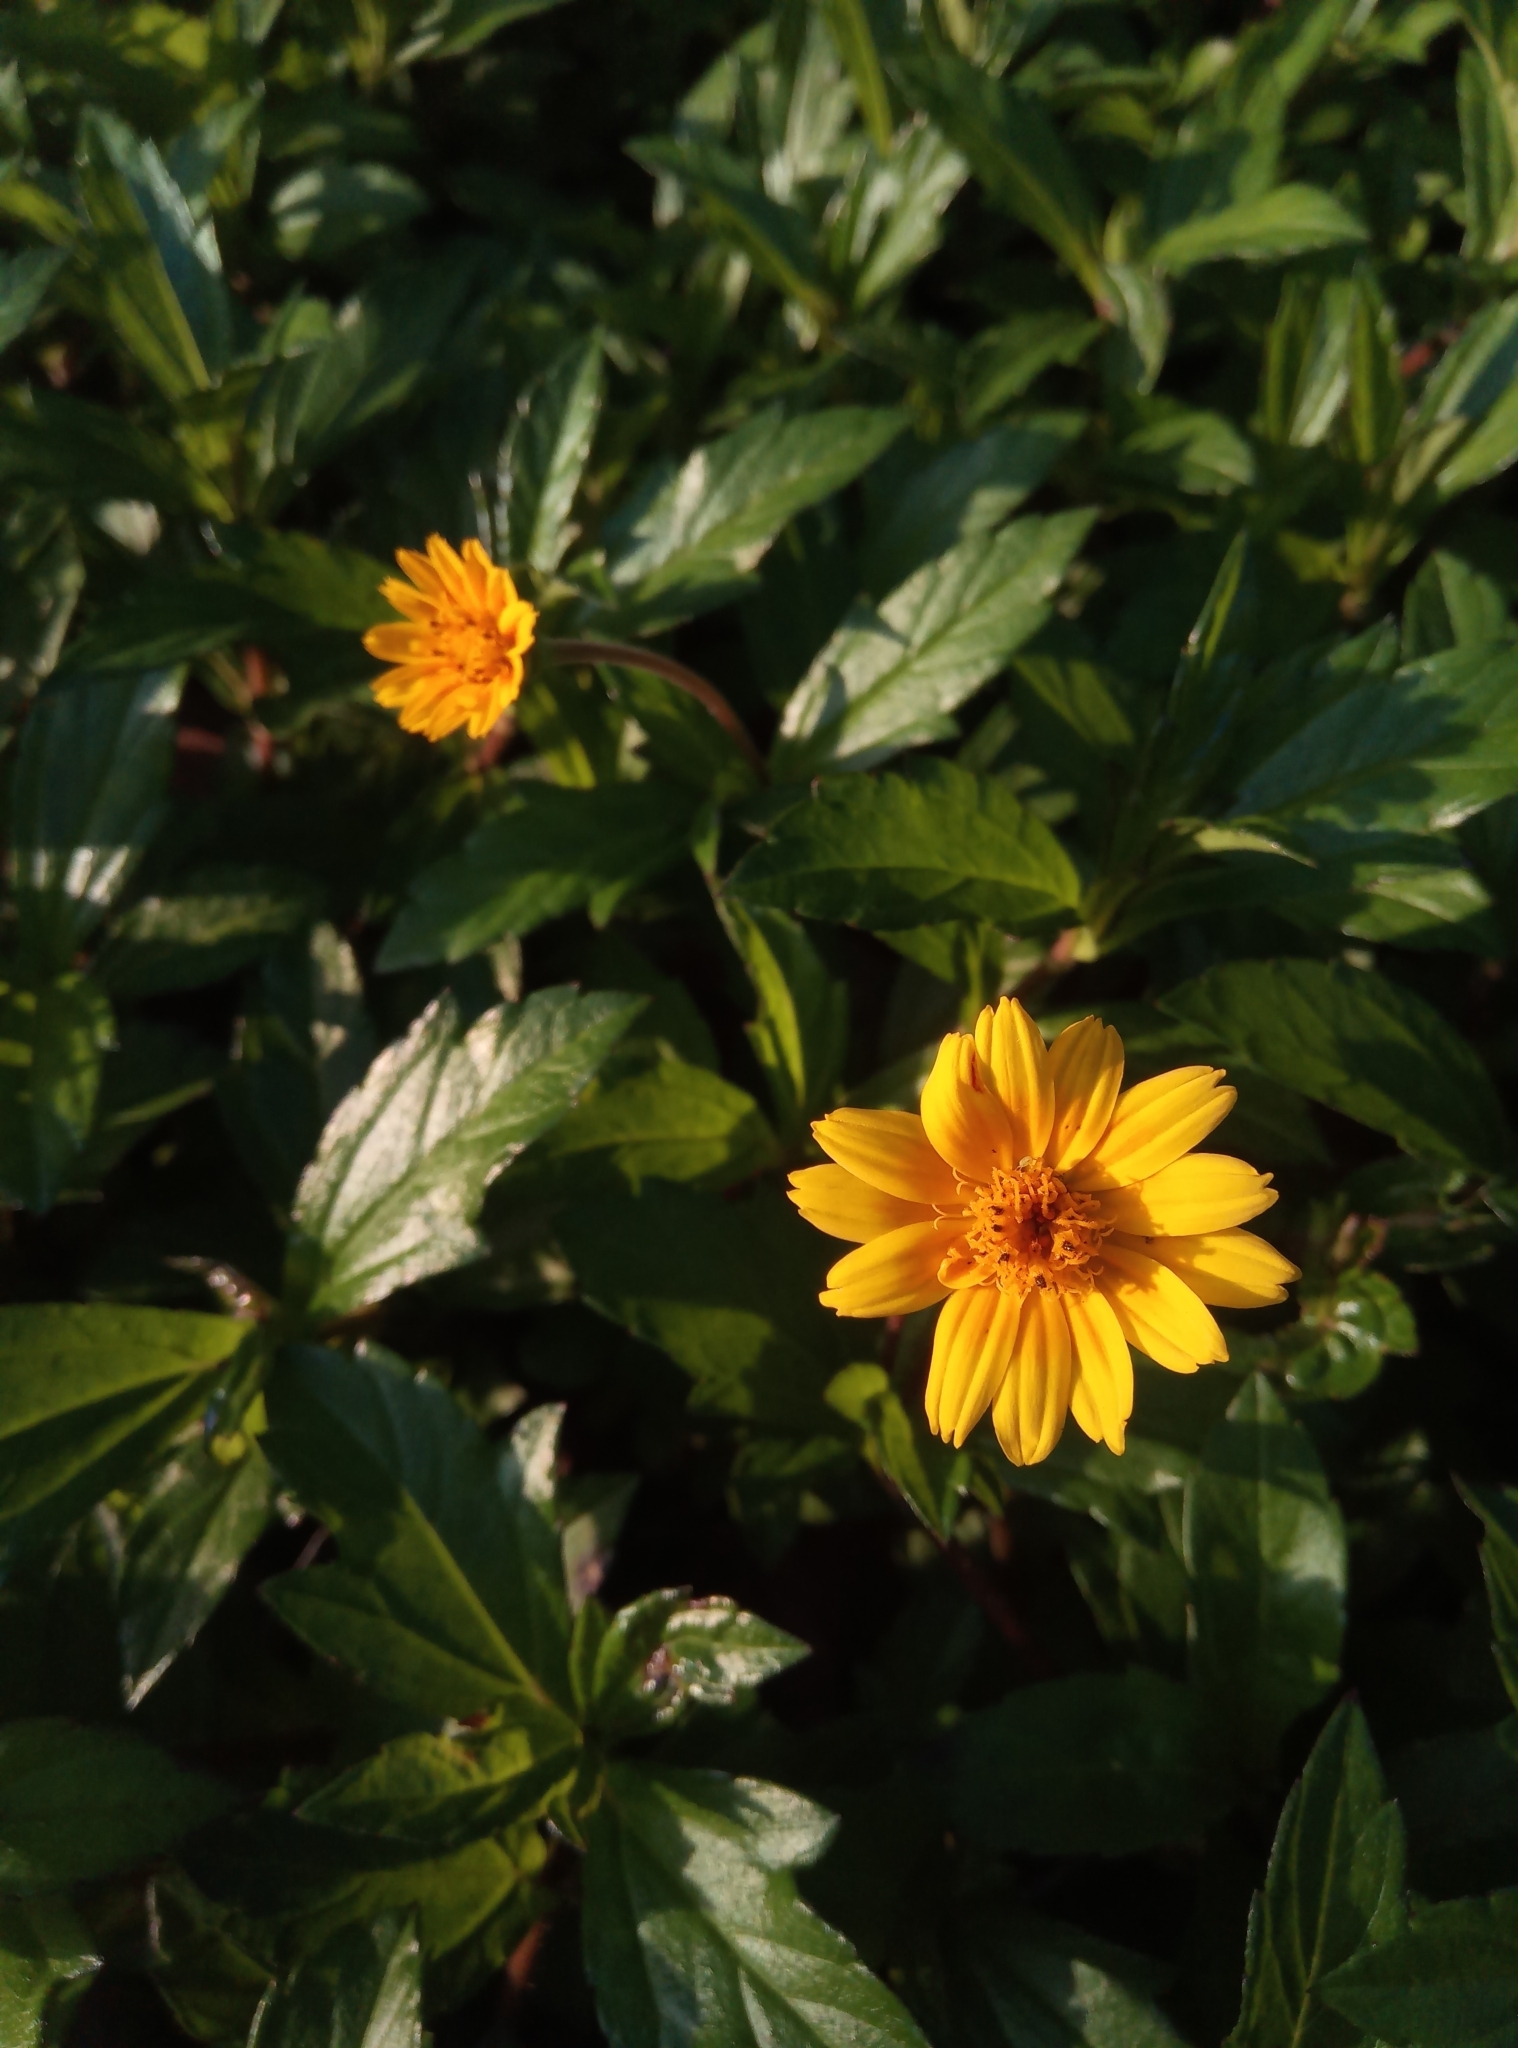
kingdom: Plantae
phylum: Tracheophyta
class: Magnoliopsida
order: Asterales
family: Asteraceae
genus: Sphagneticola
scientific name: Sphagneticola trilobata
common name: Bay biscayne creeping-oxeye
